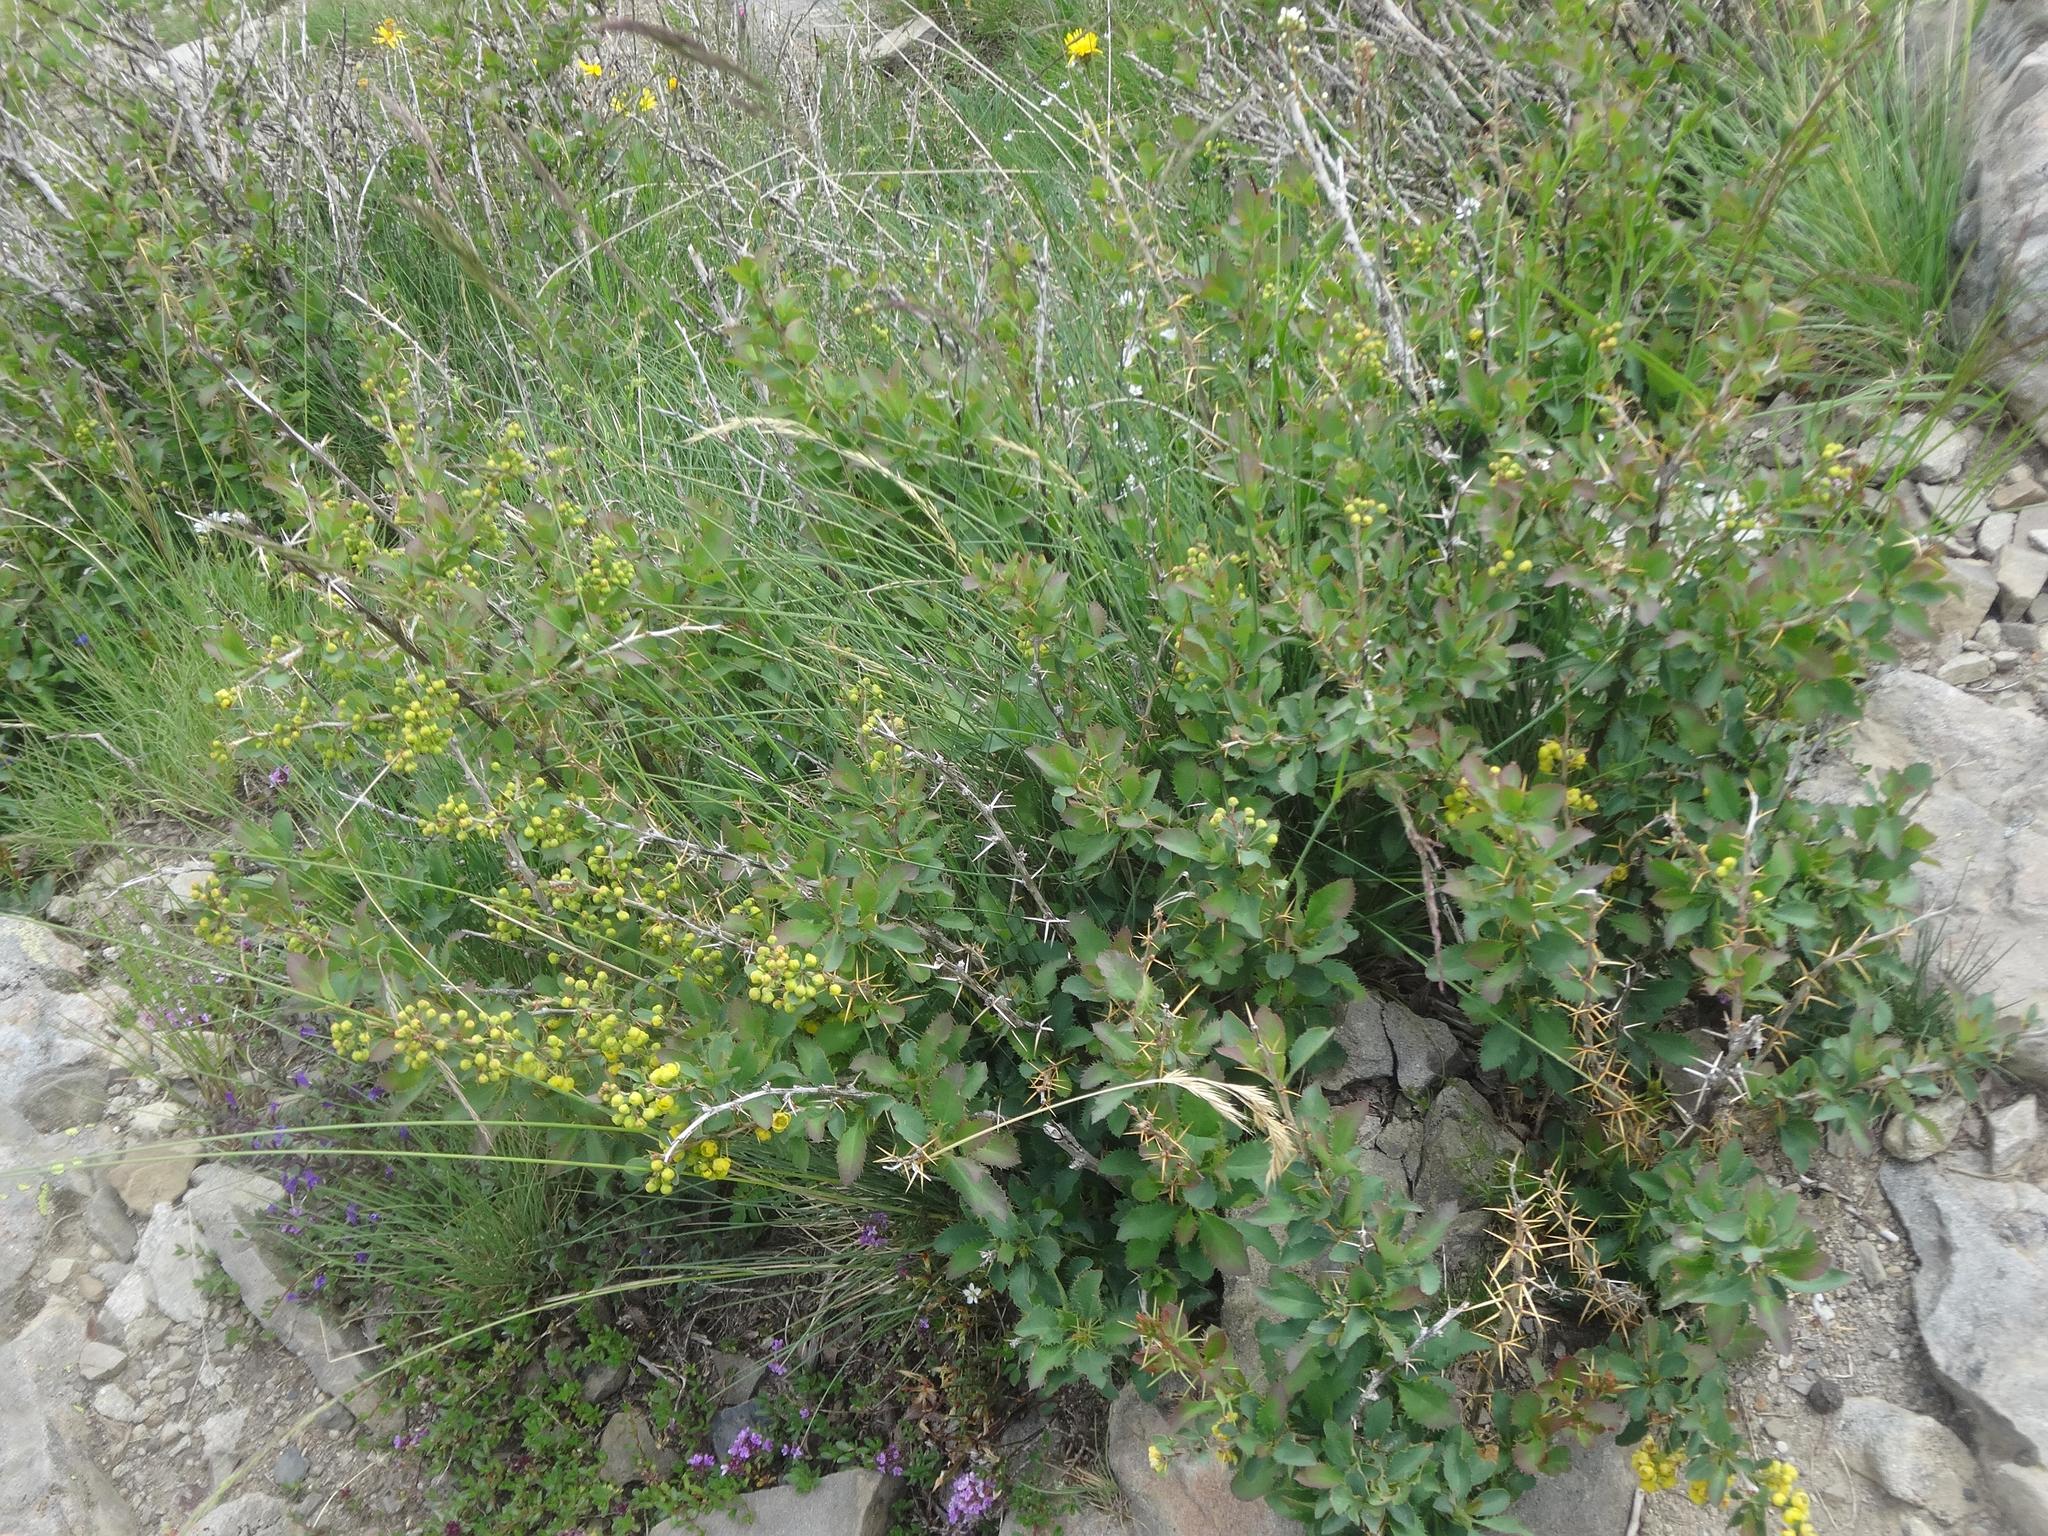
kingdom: Plantae
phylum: Tracheophyta
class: Magnoliopsida
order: Ranunculales
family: Berberidaceae
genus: Berberis
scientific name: Berberis vulgaris
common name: Barberry
